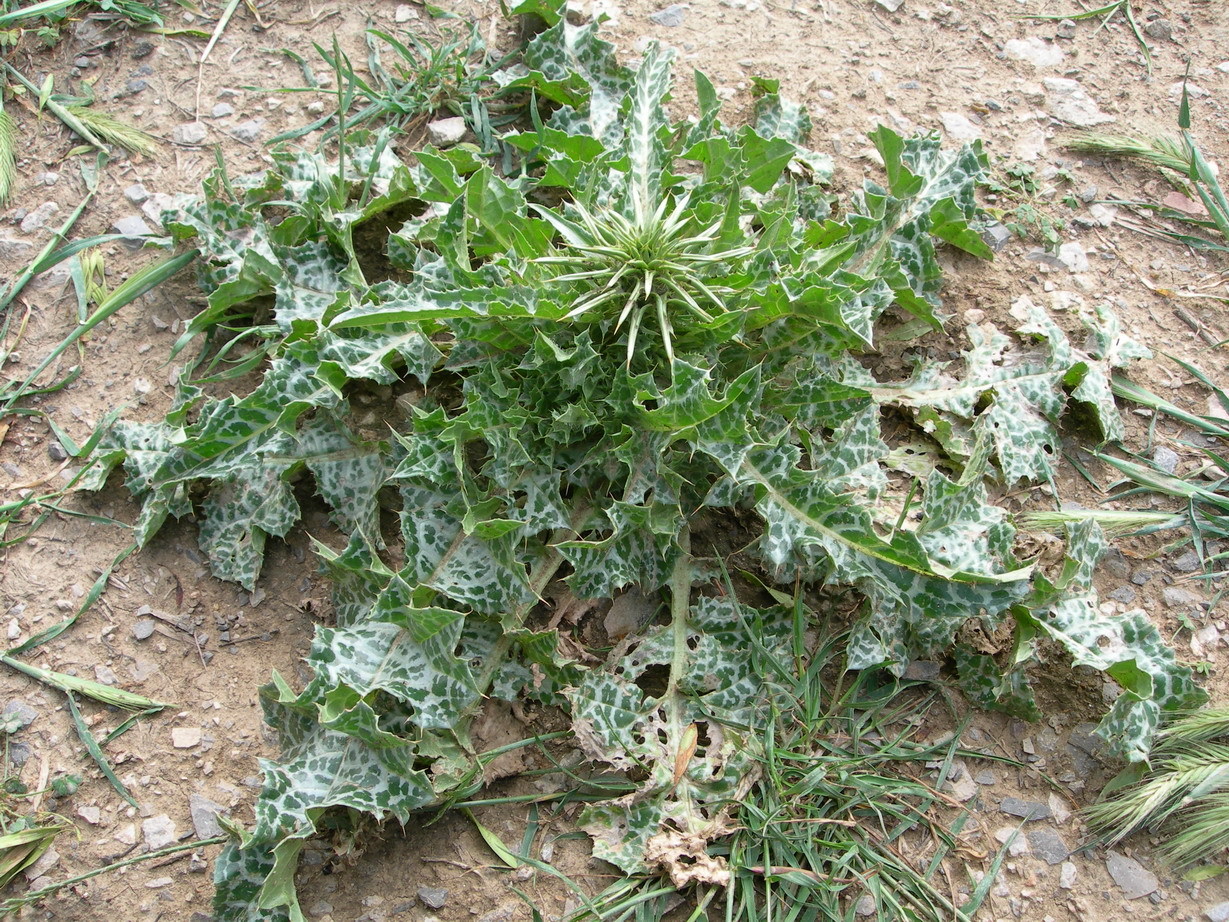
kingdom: Plantae
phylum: Tracheophyta
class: Magnoliopsida
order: Asterales
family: Asteraceae
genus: Silybum
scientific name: Silybum marianum
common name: Milk thistle
